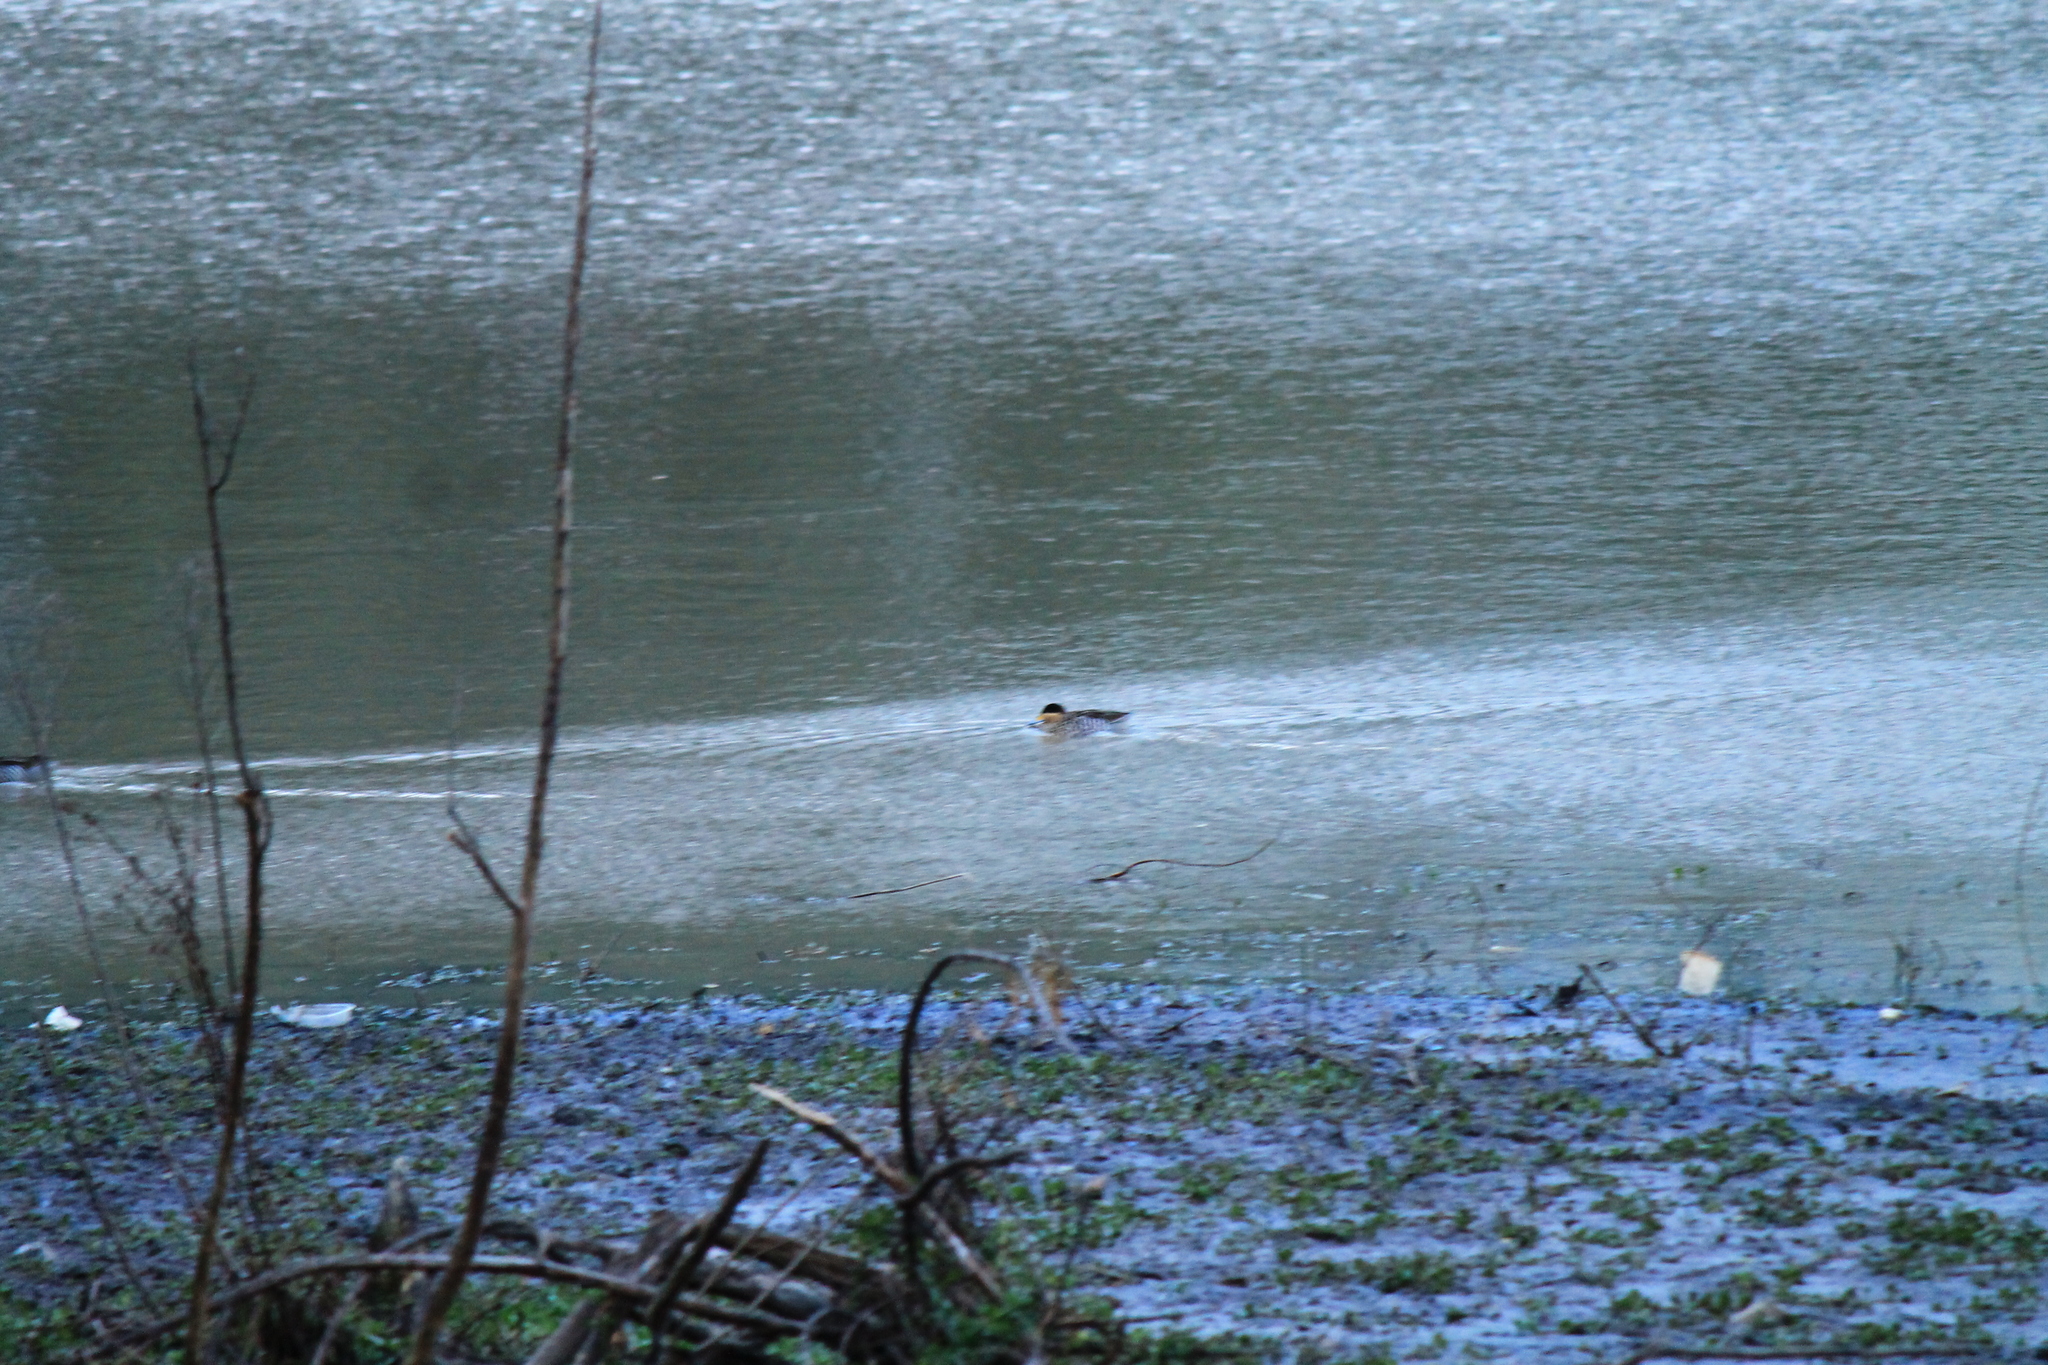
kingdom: Animalia
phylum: Chordata
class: Aves
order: Anseriformes
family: Anatidae
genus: Spatula
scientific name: Spatula versicolor
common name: Silver teal
